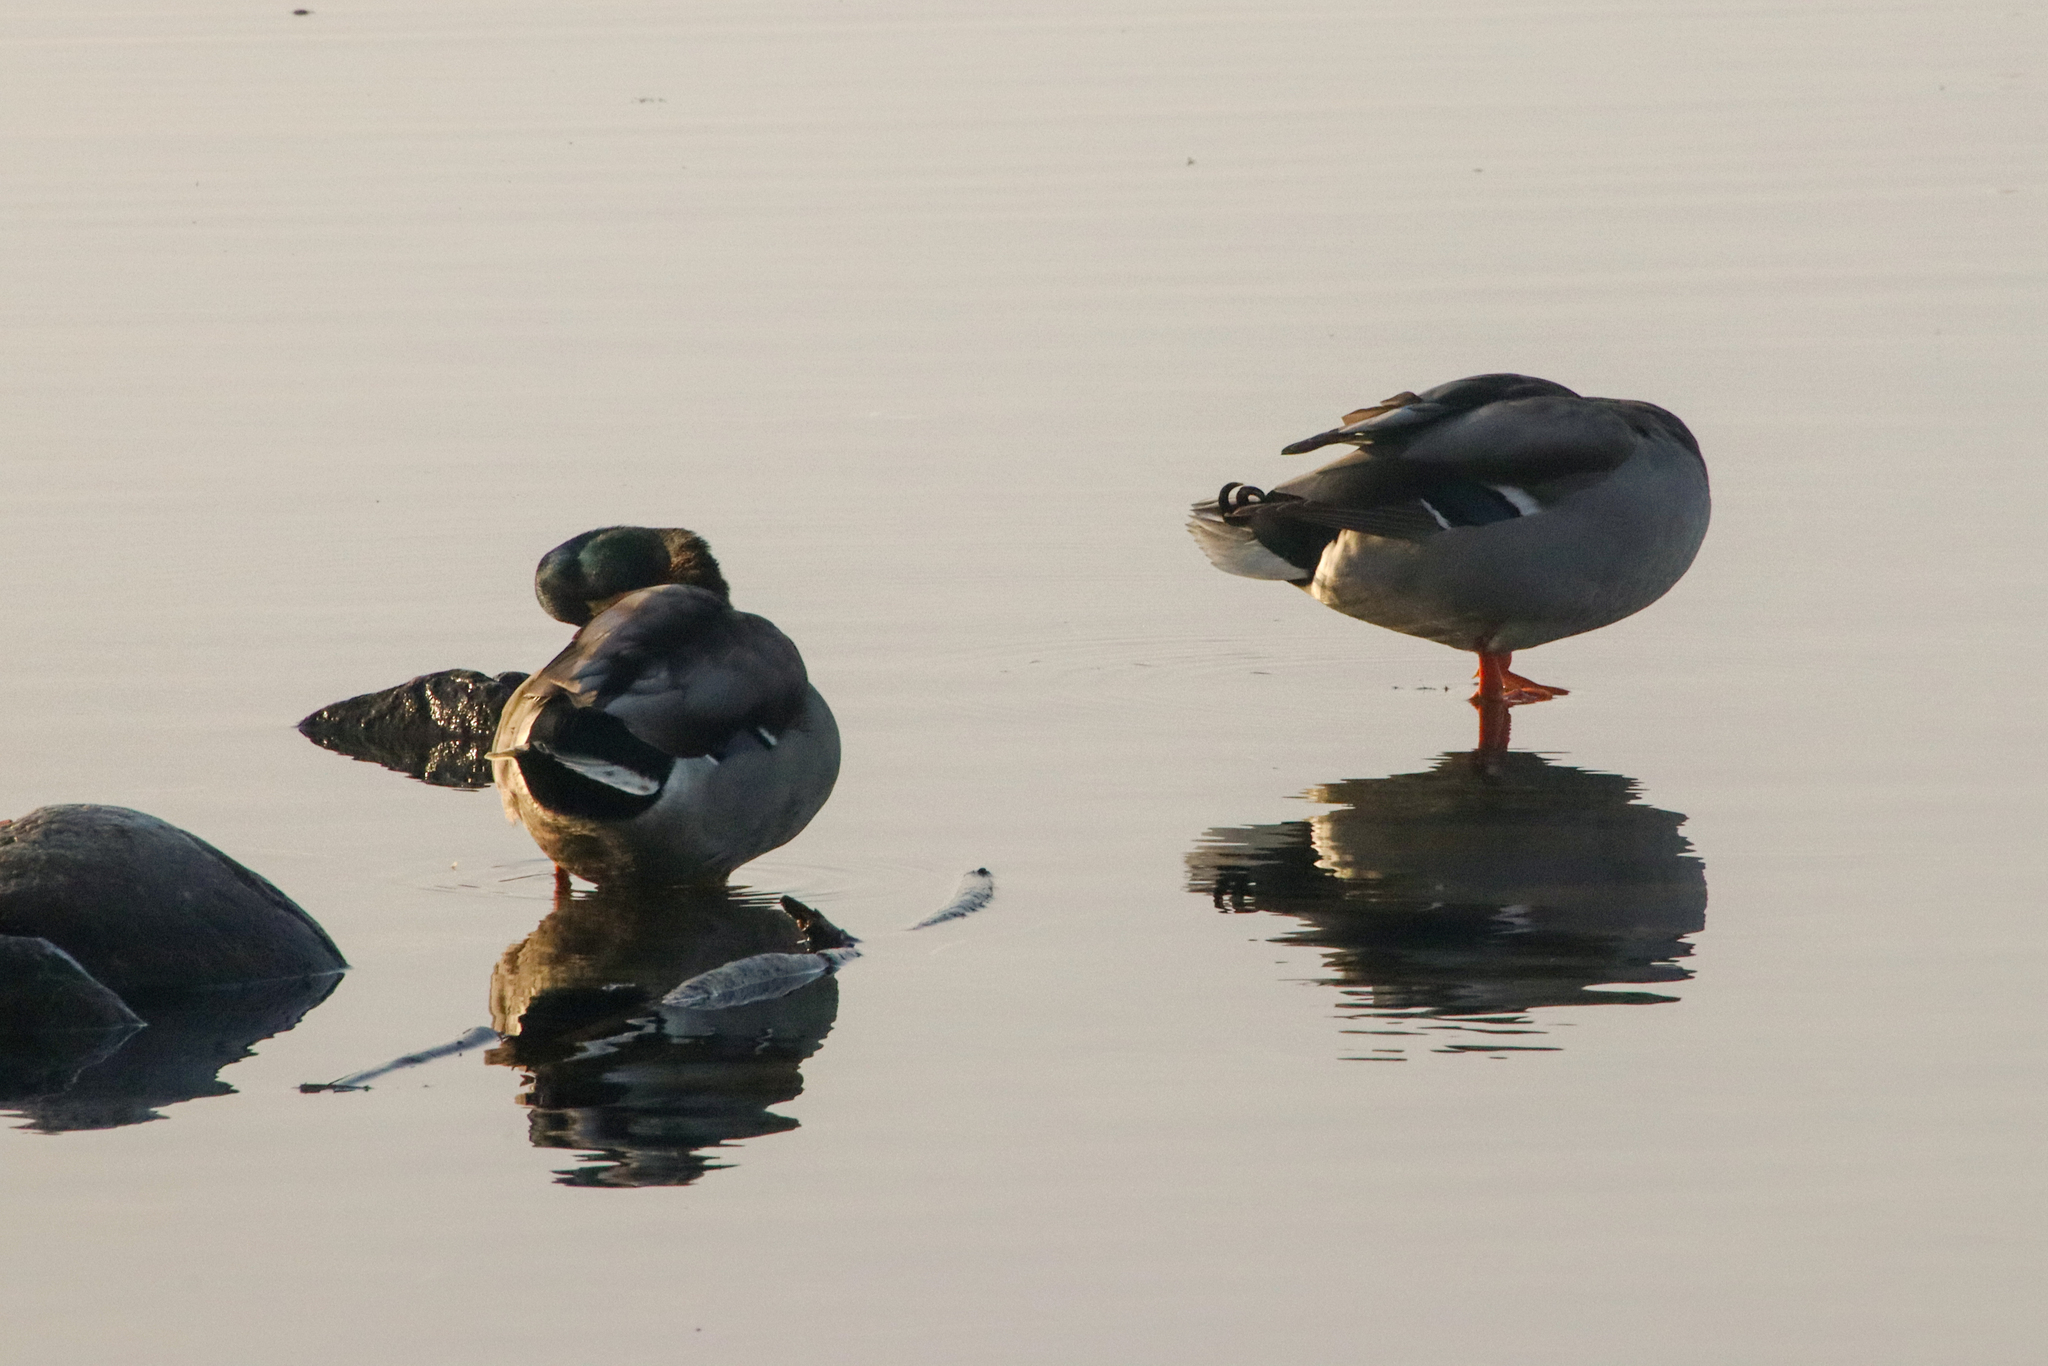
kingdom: Animalia
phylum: Chordata
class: Aves
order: Anseriformes
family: Anatidae
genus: Anas
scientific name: Anas platyrhynchos
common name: Mallard
